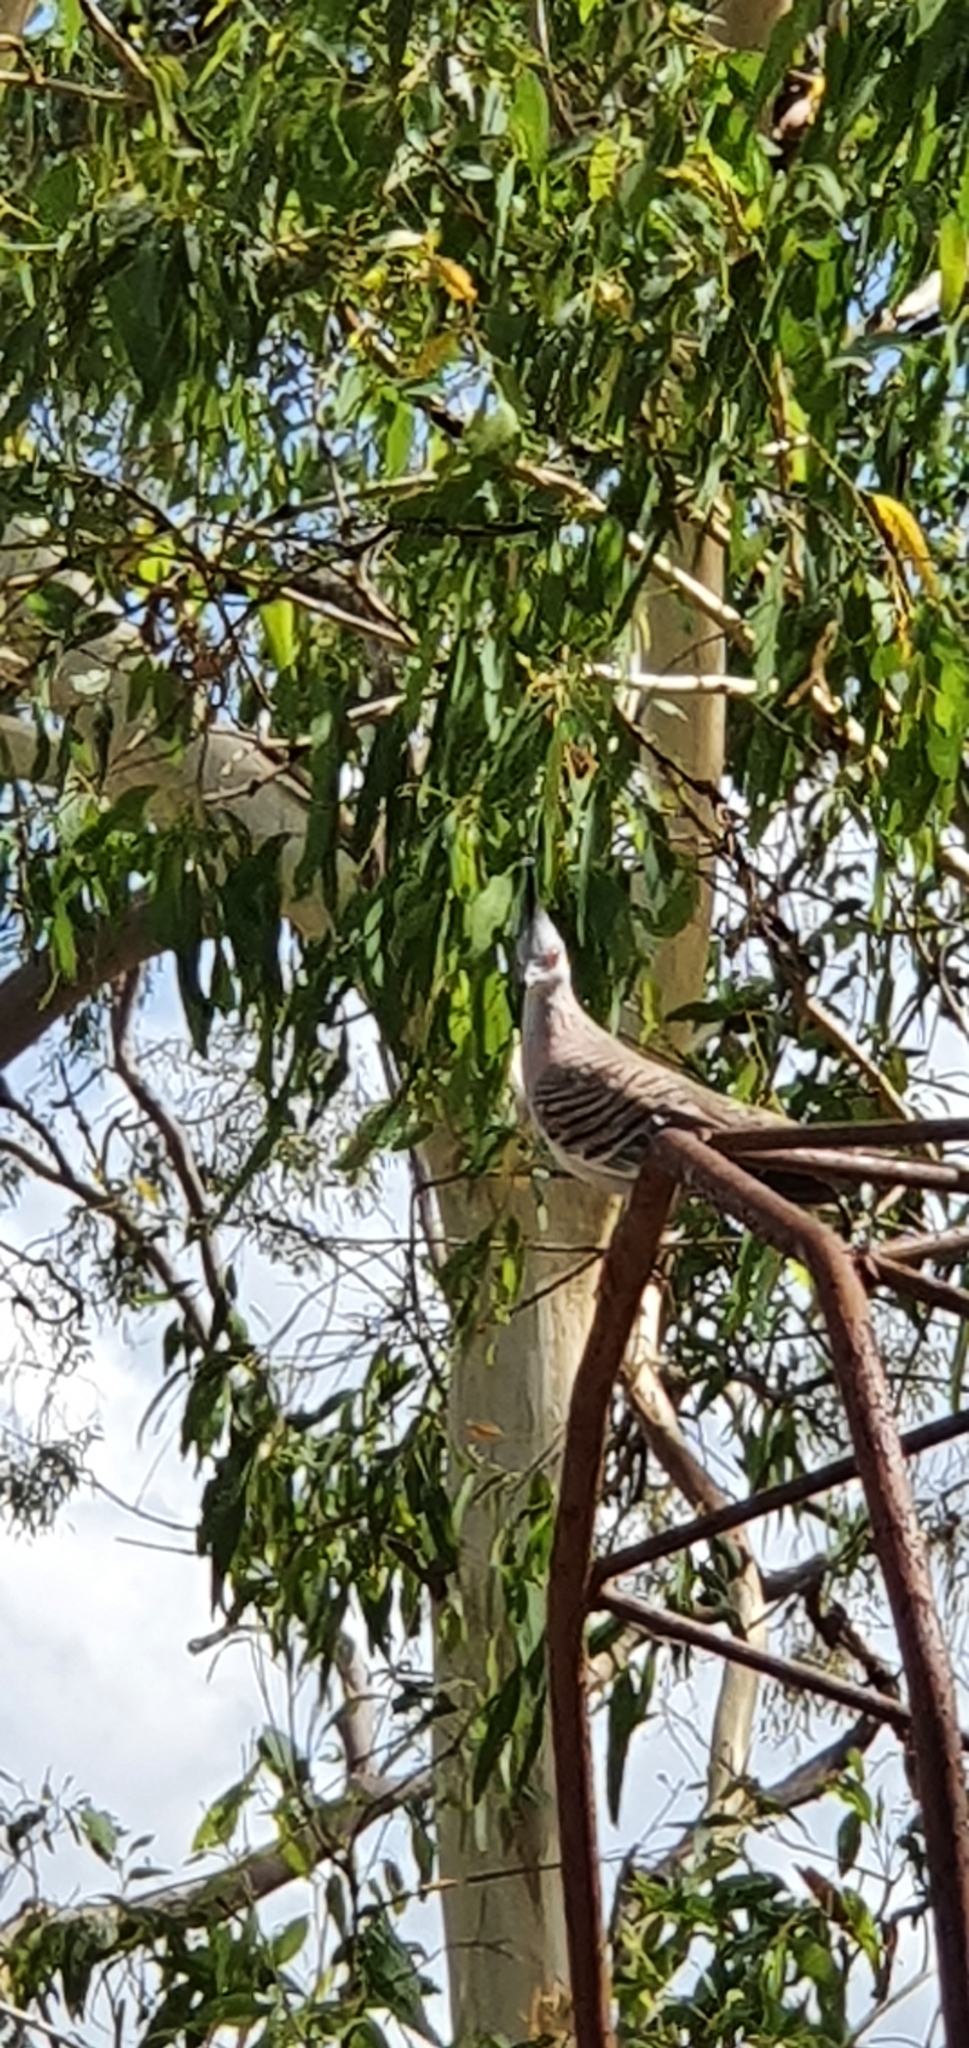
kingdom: Animalia
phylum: Chordata
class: Aves
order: Columbiformes
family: Columbidae
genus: Ocyphaps
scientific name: Ocyphaps lophotes
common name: Crested pigeon
